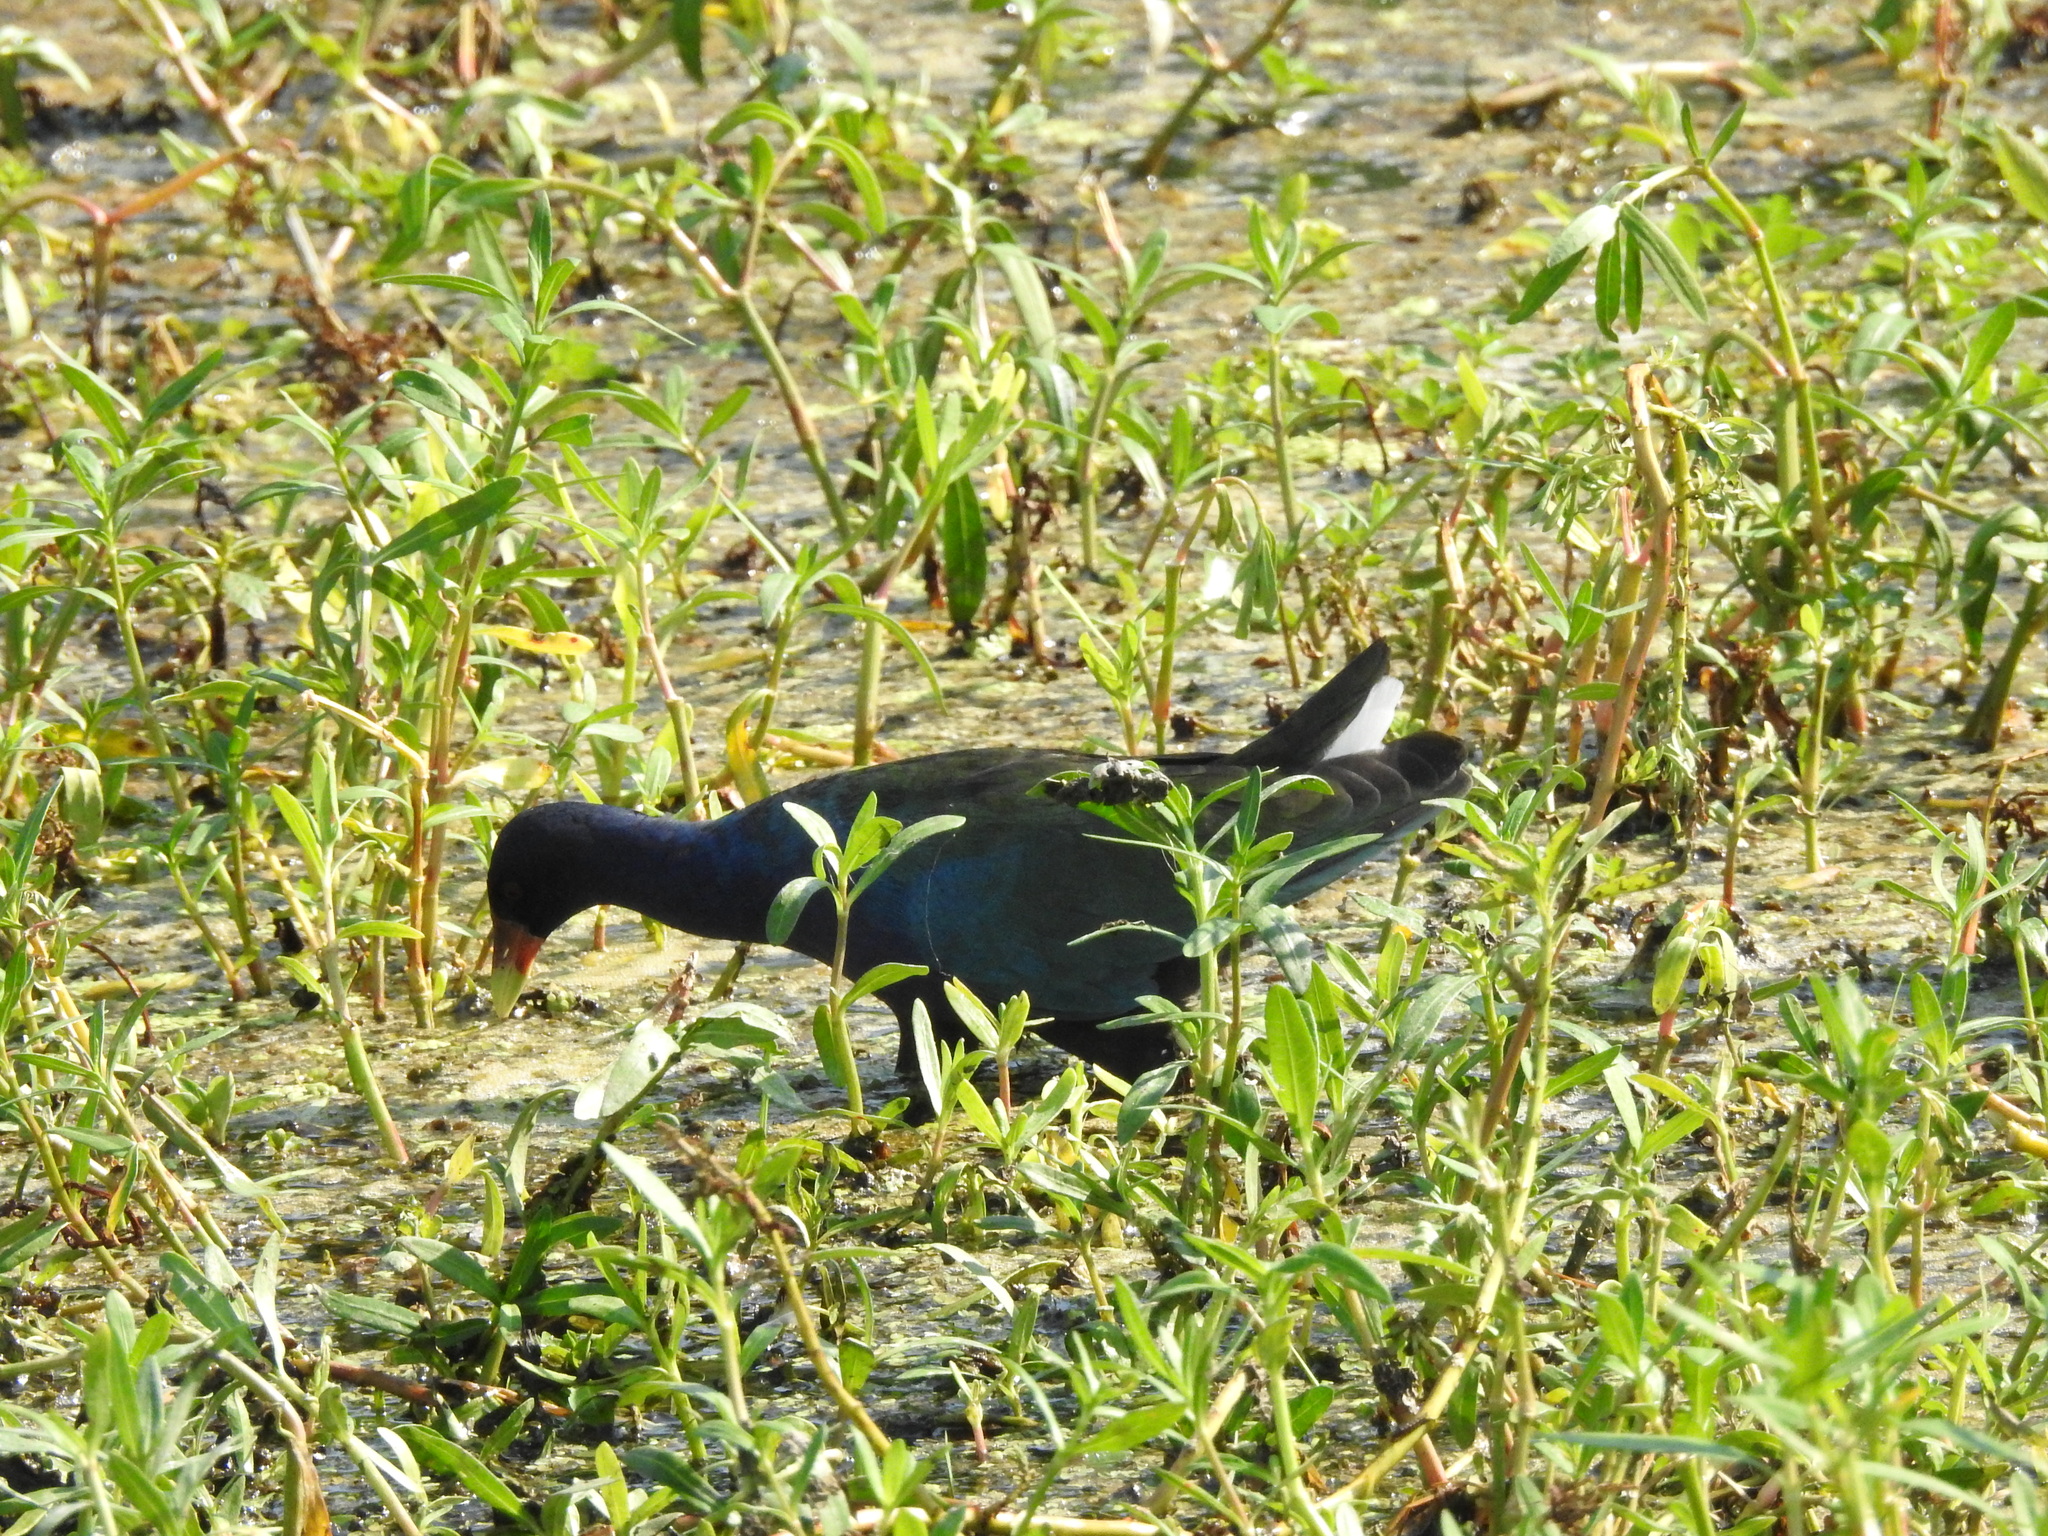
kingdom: Animalia
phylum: Chordata
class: Aves
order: Gruiformes
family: Rallidae
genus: Porphyrio
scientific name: Porphyrio martinica
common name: Purple gallinule
